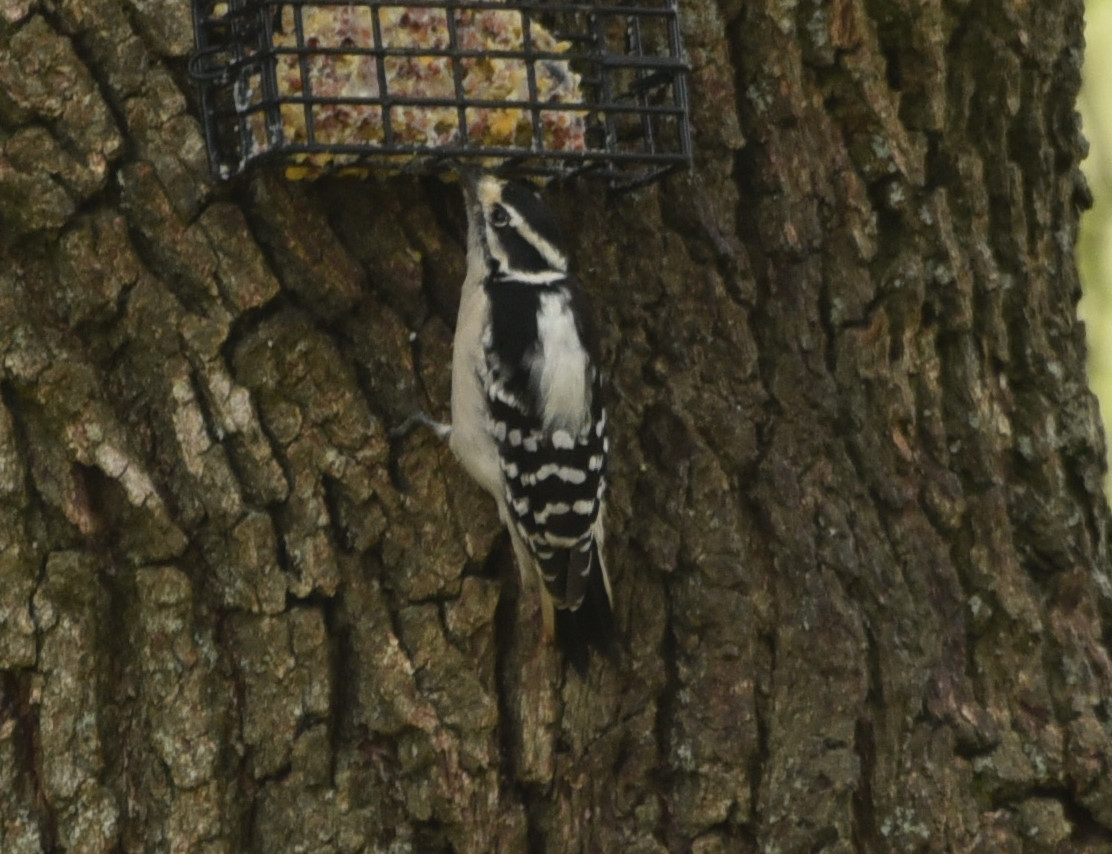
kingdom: Animalia
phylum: Chordata
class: Aves
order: Piciformes
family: Picidae
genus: Dryobates
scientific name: Dryobates pubescens
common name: Downy woodpecker
